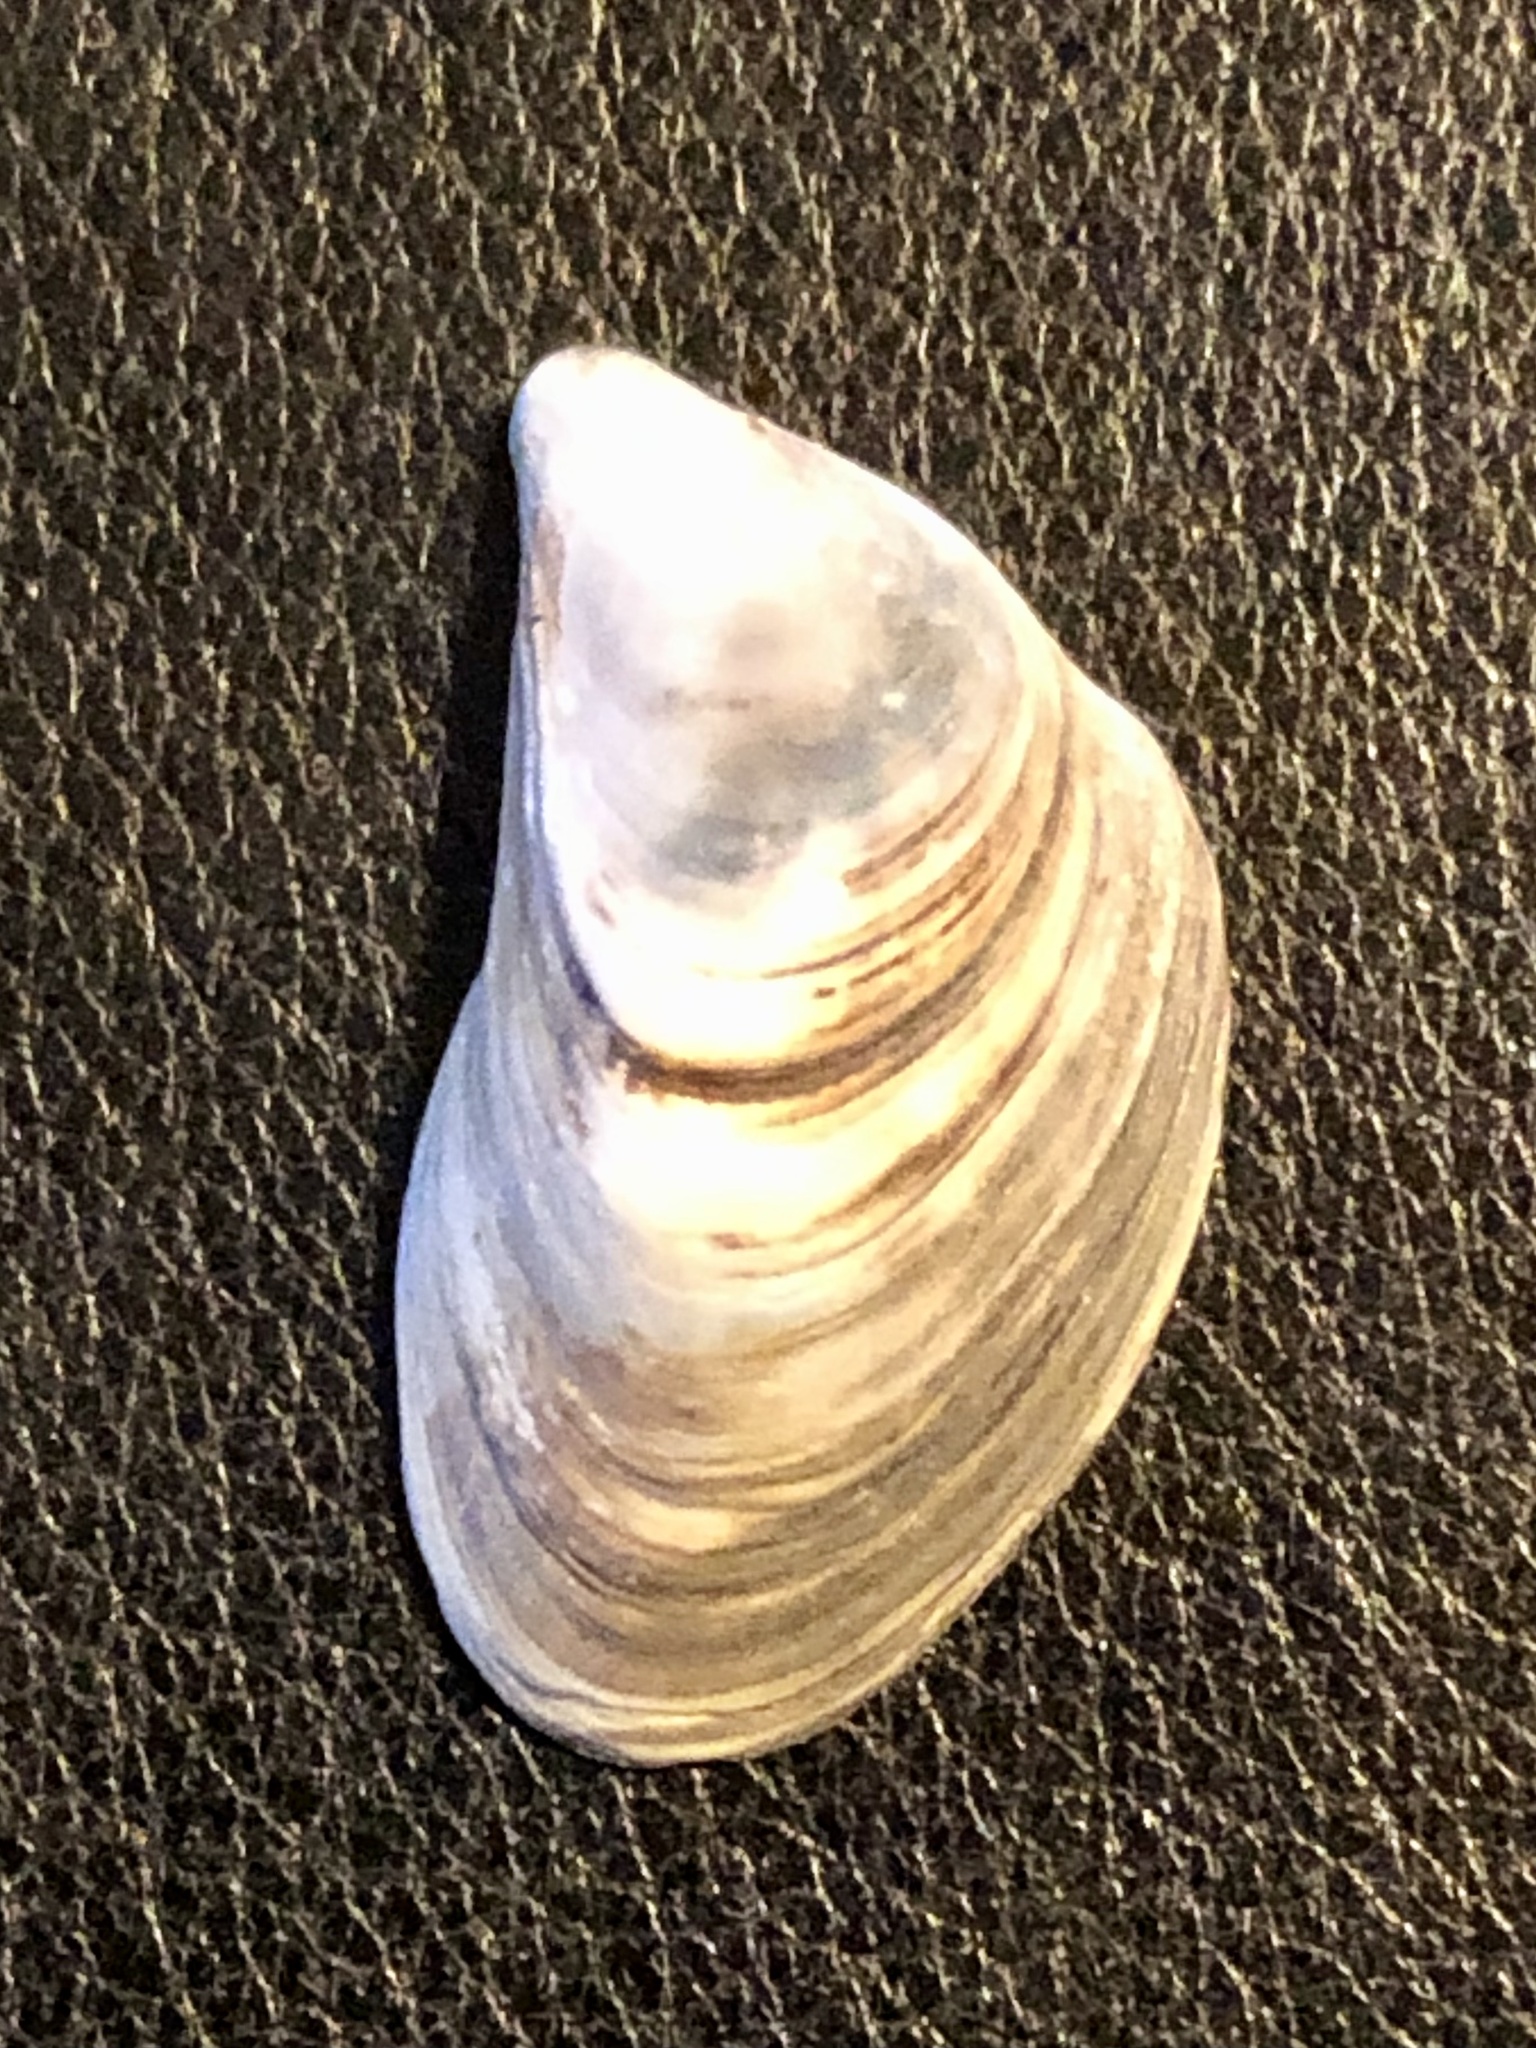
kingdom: Animalia
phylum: Mollusca
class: Bivalvia
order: Myida
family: Dreissenidae
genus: Dreissena
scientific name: Dreissena bugensis
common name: Quagga mussel
